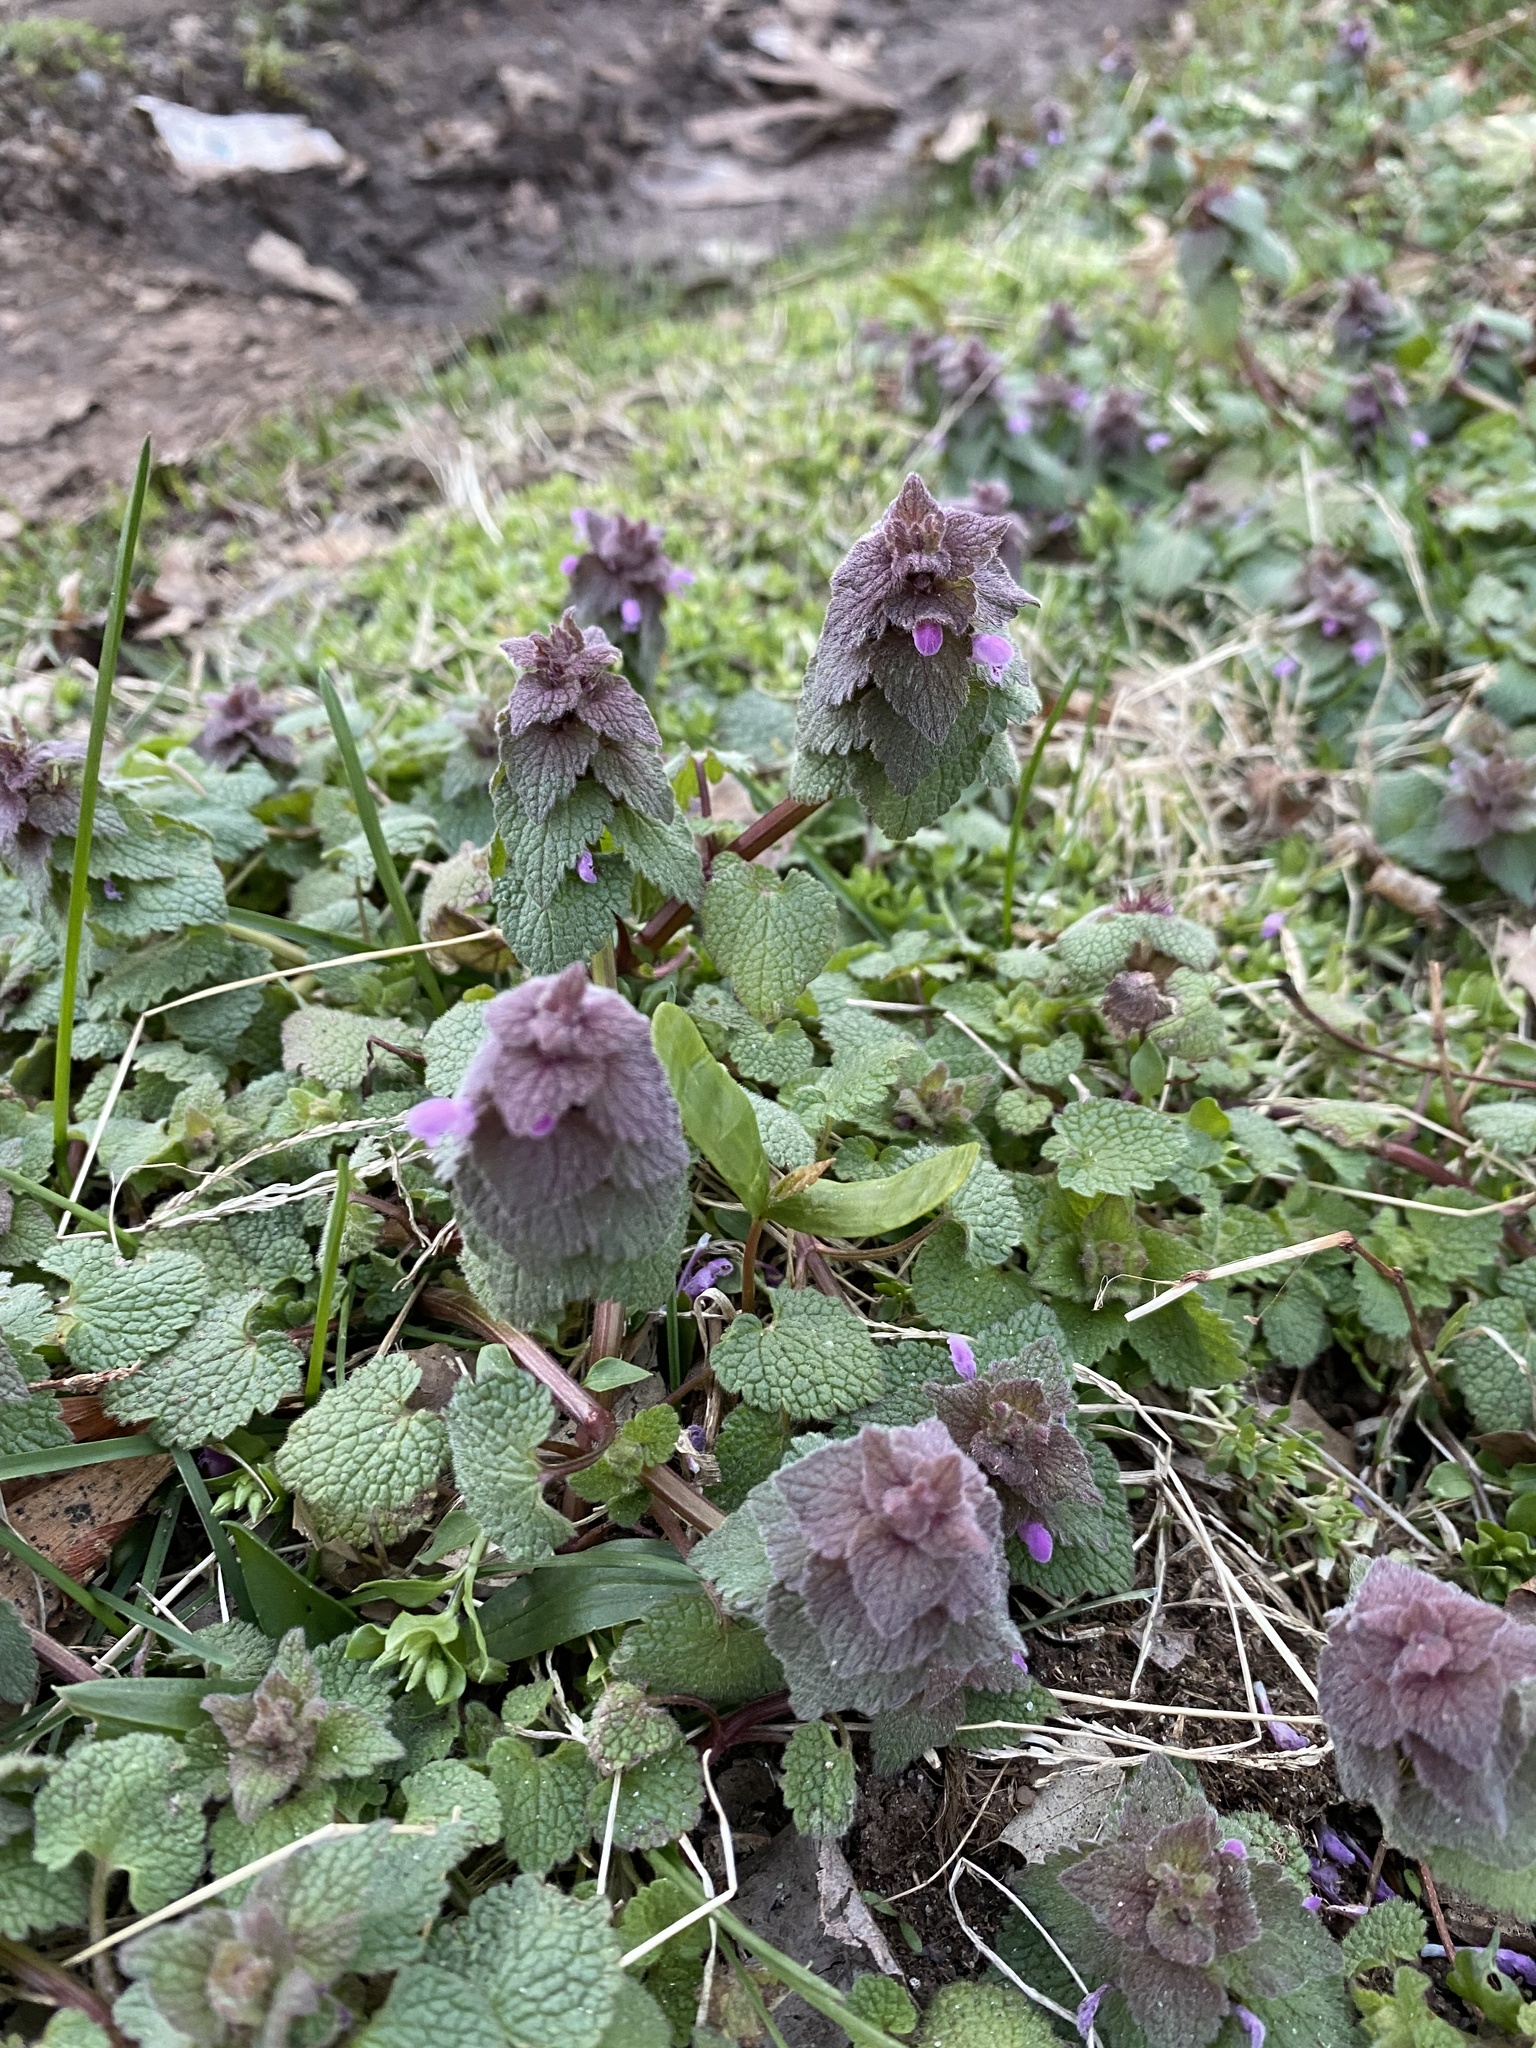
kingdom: Plantae
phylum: Tracheophyta
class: Magnoliopsida
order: Lamiales
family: Lamiaceae
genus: Lamium
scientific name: Lamium purpureum
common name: Red dead-nettle
